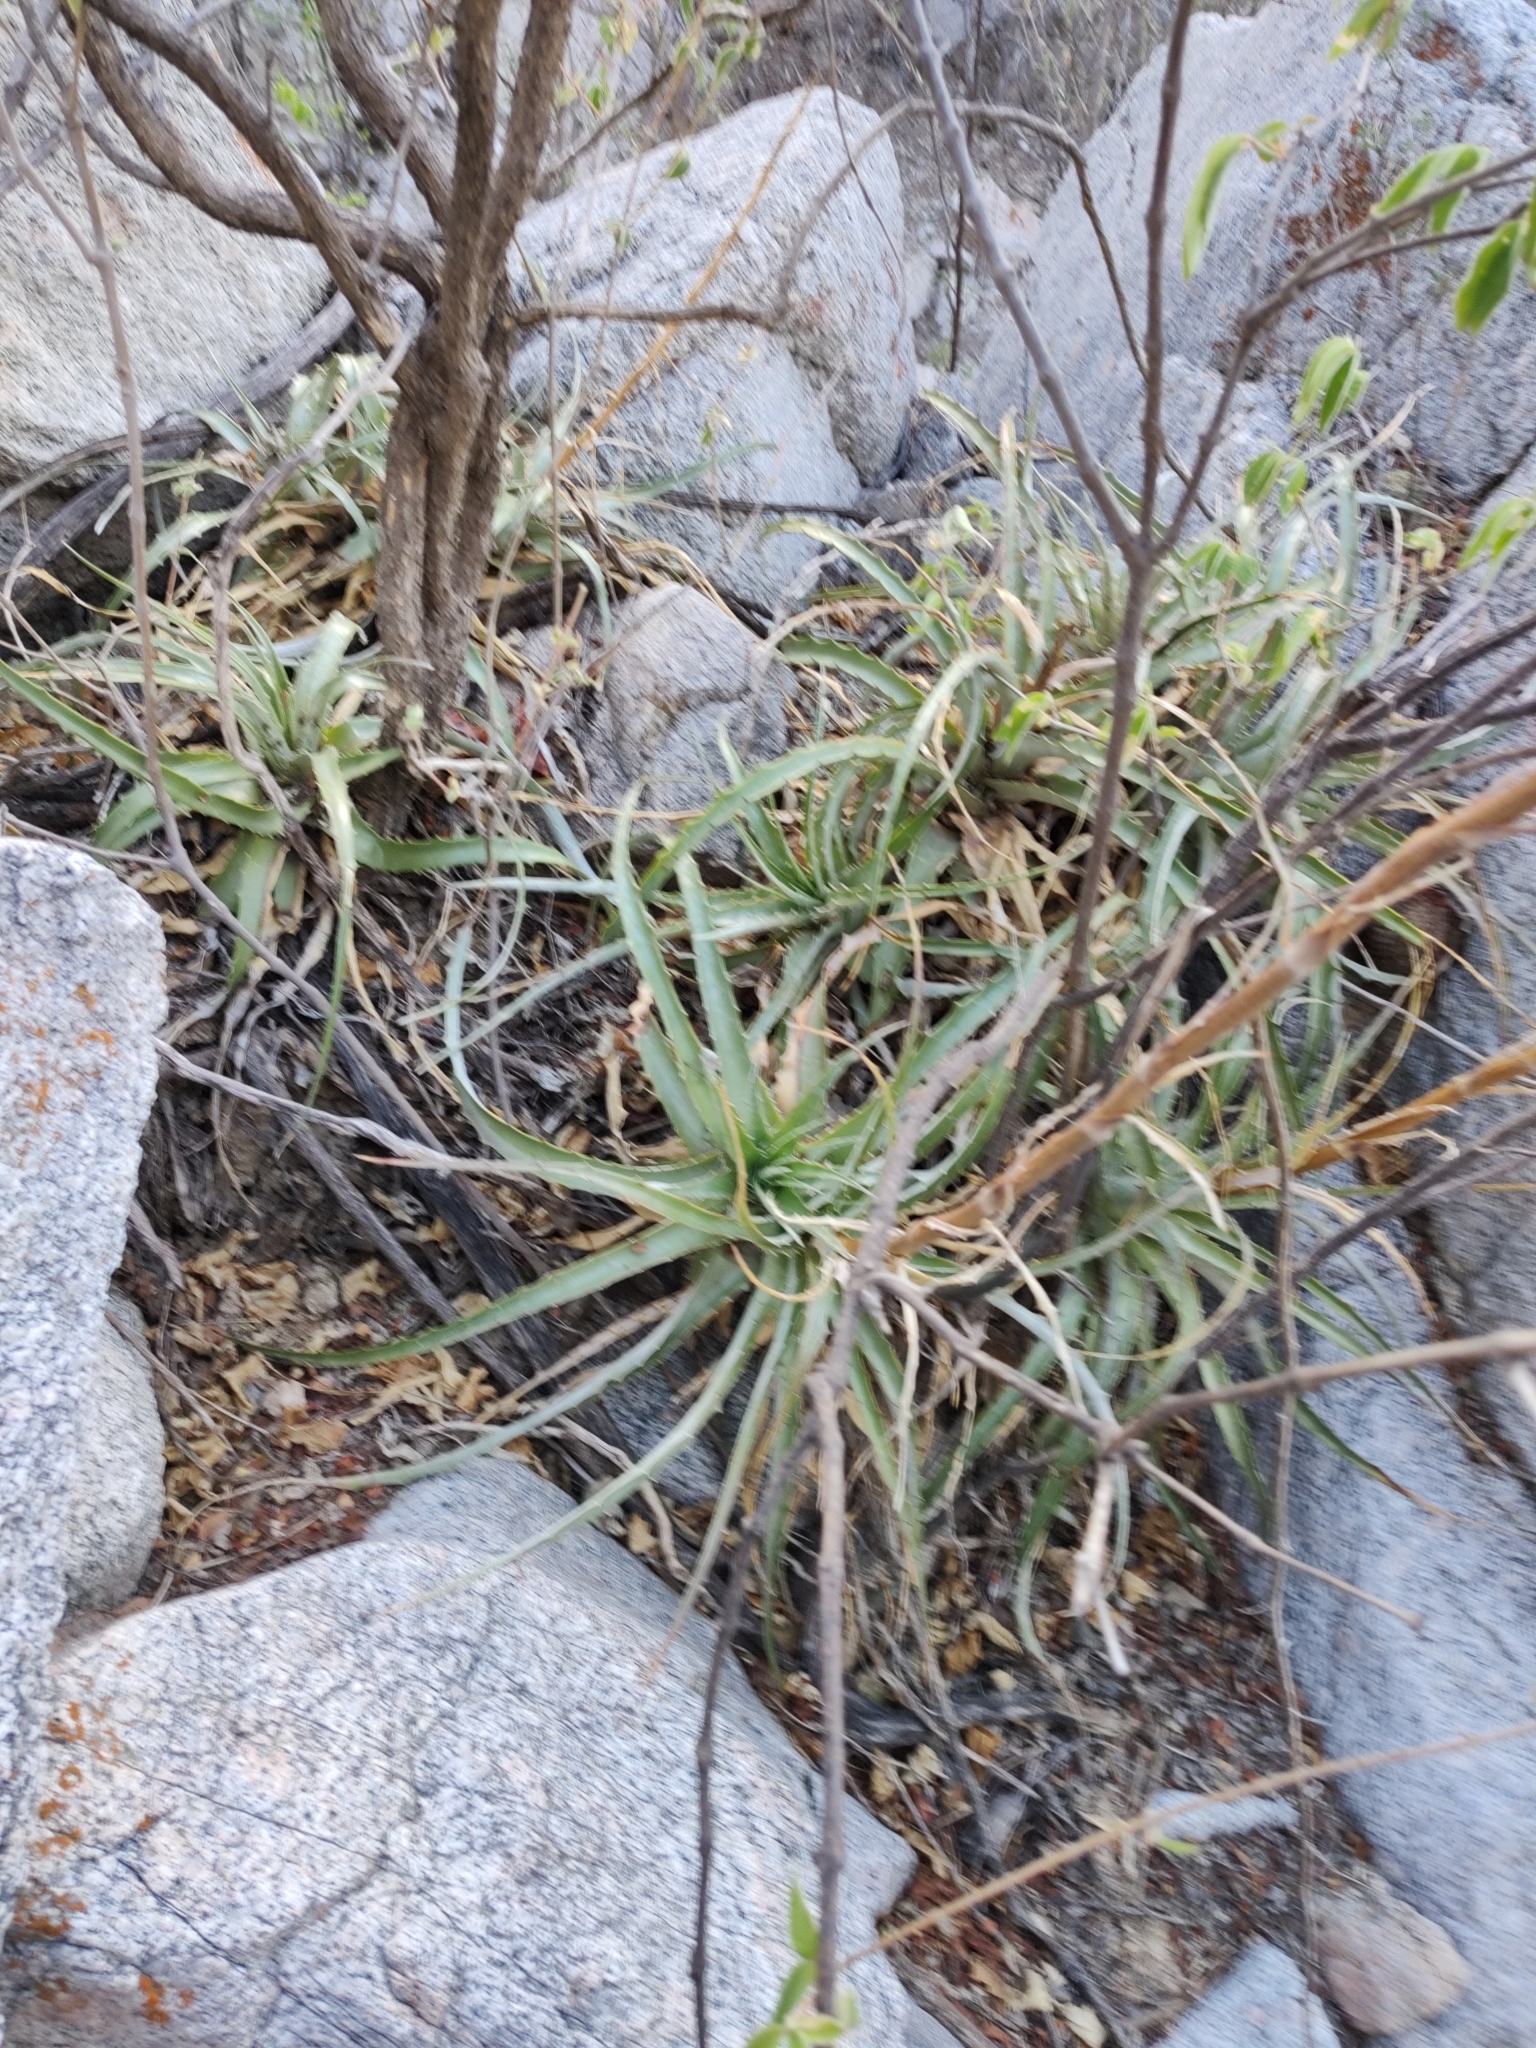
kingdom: Plantae
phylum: Tracheophyta
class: Liliopsida
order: Poales
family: Bromeliaceae
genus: Hechtia
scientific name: Hechtia montana
